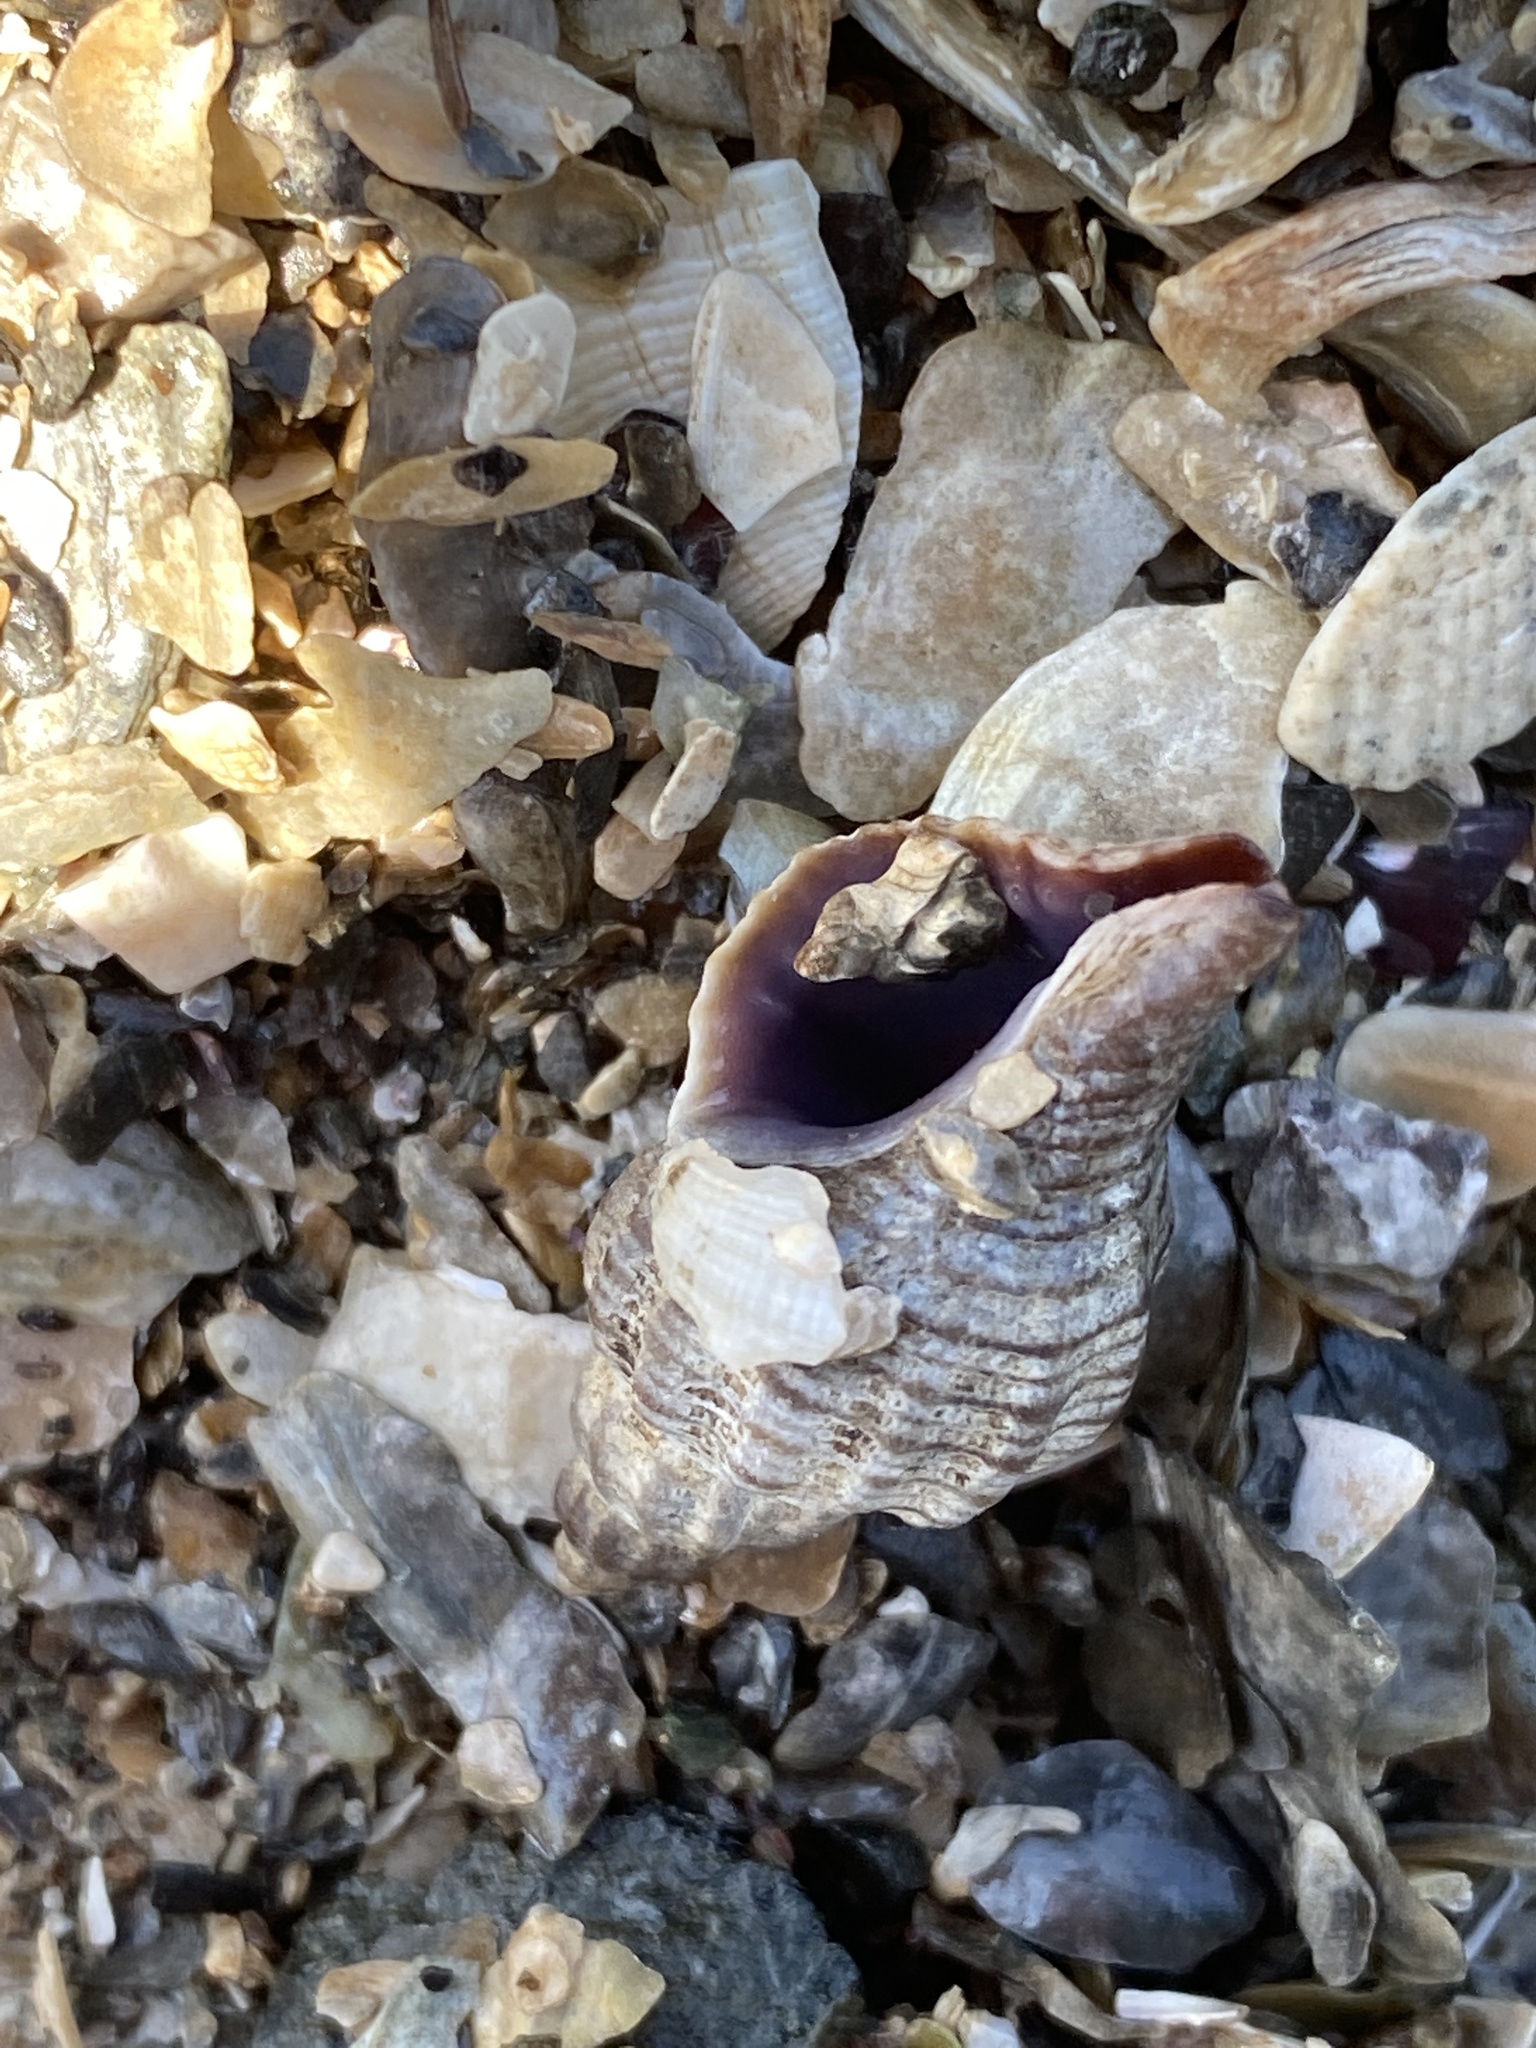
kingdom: Animalia
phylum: Mollusca
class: Gastropoda
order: Neogastropoda
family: Muricidae
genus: Urosalpinx
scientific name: Urosalpinx cinerea
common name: American sting winkle
